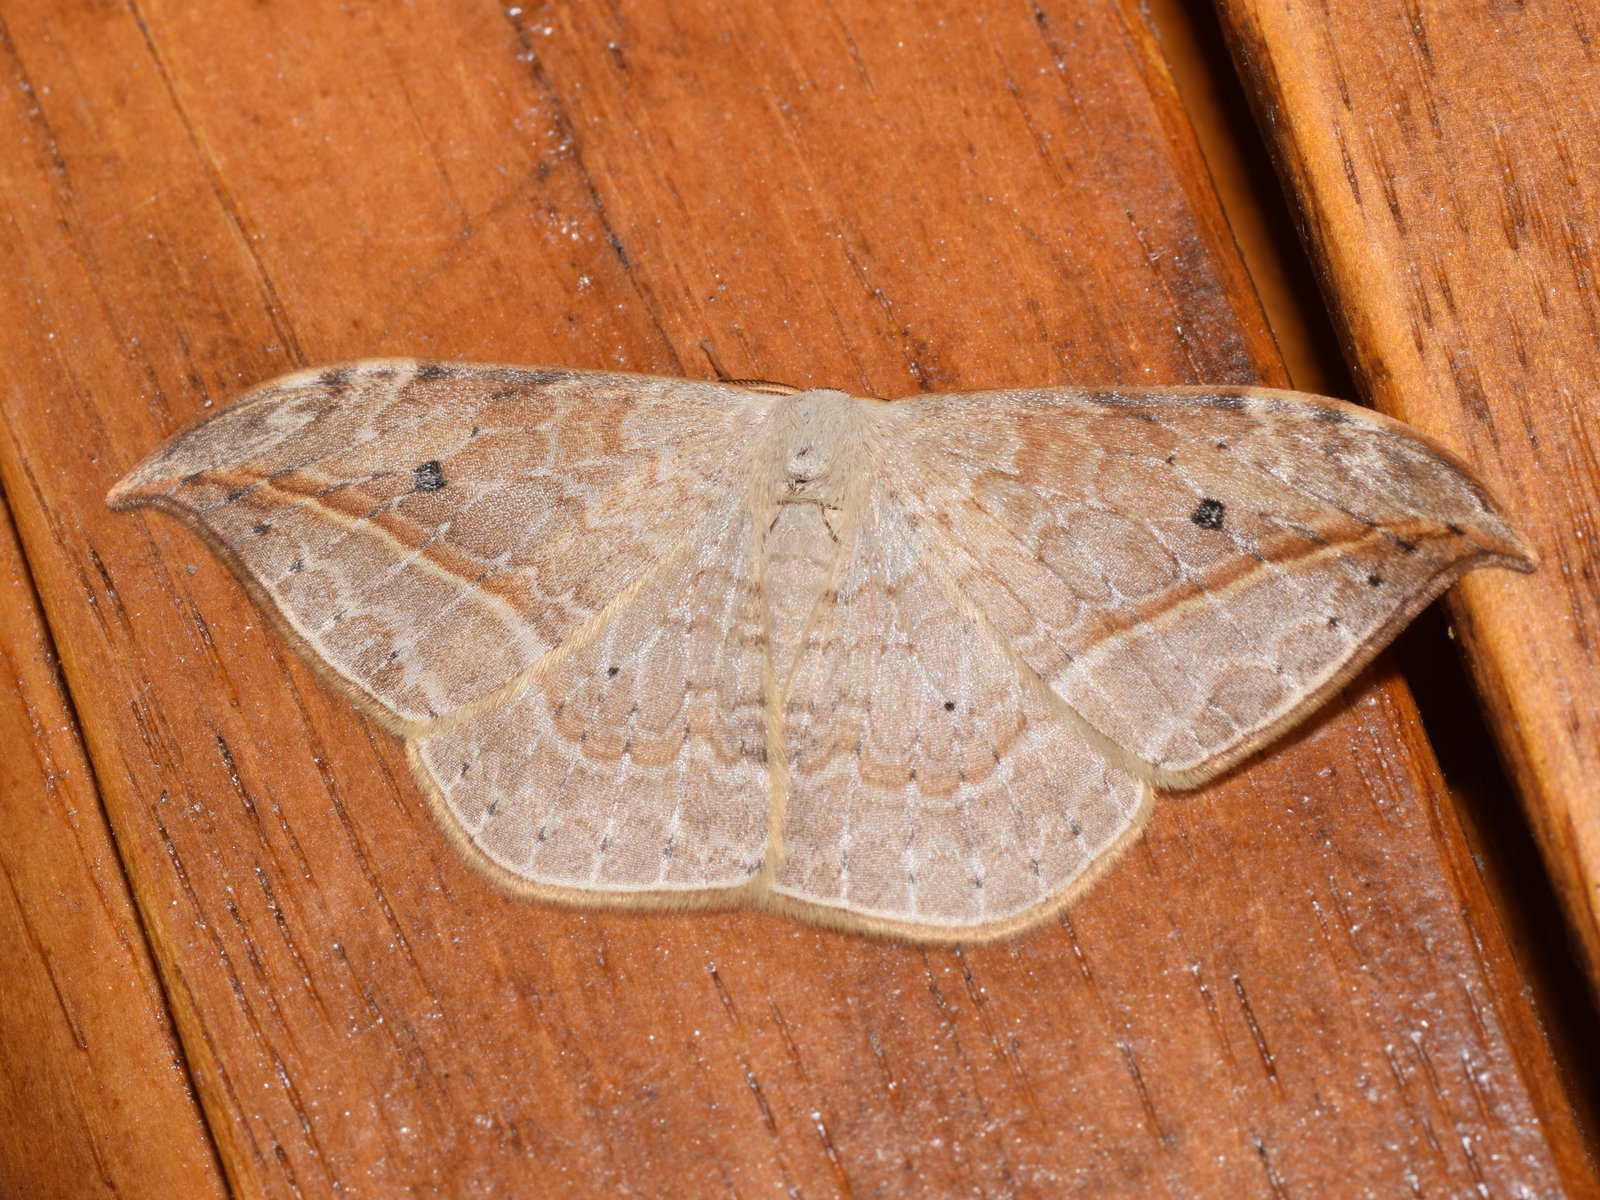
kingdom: Animalia
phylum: Arthropoda
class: Insecta
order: Lepidoptera
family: Drepanidae
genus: Drepana
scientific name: Drepana pallida
